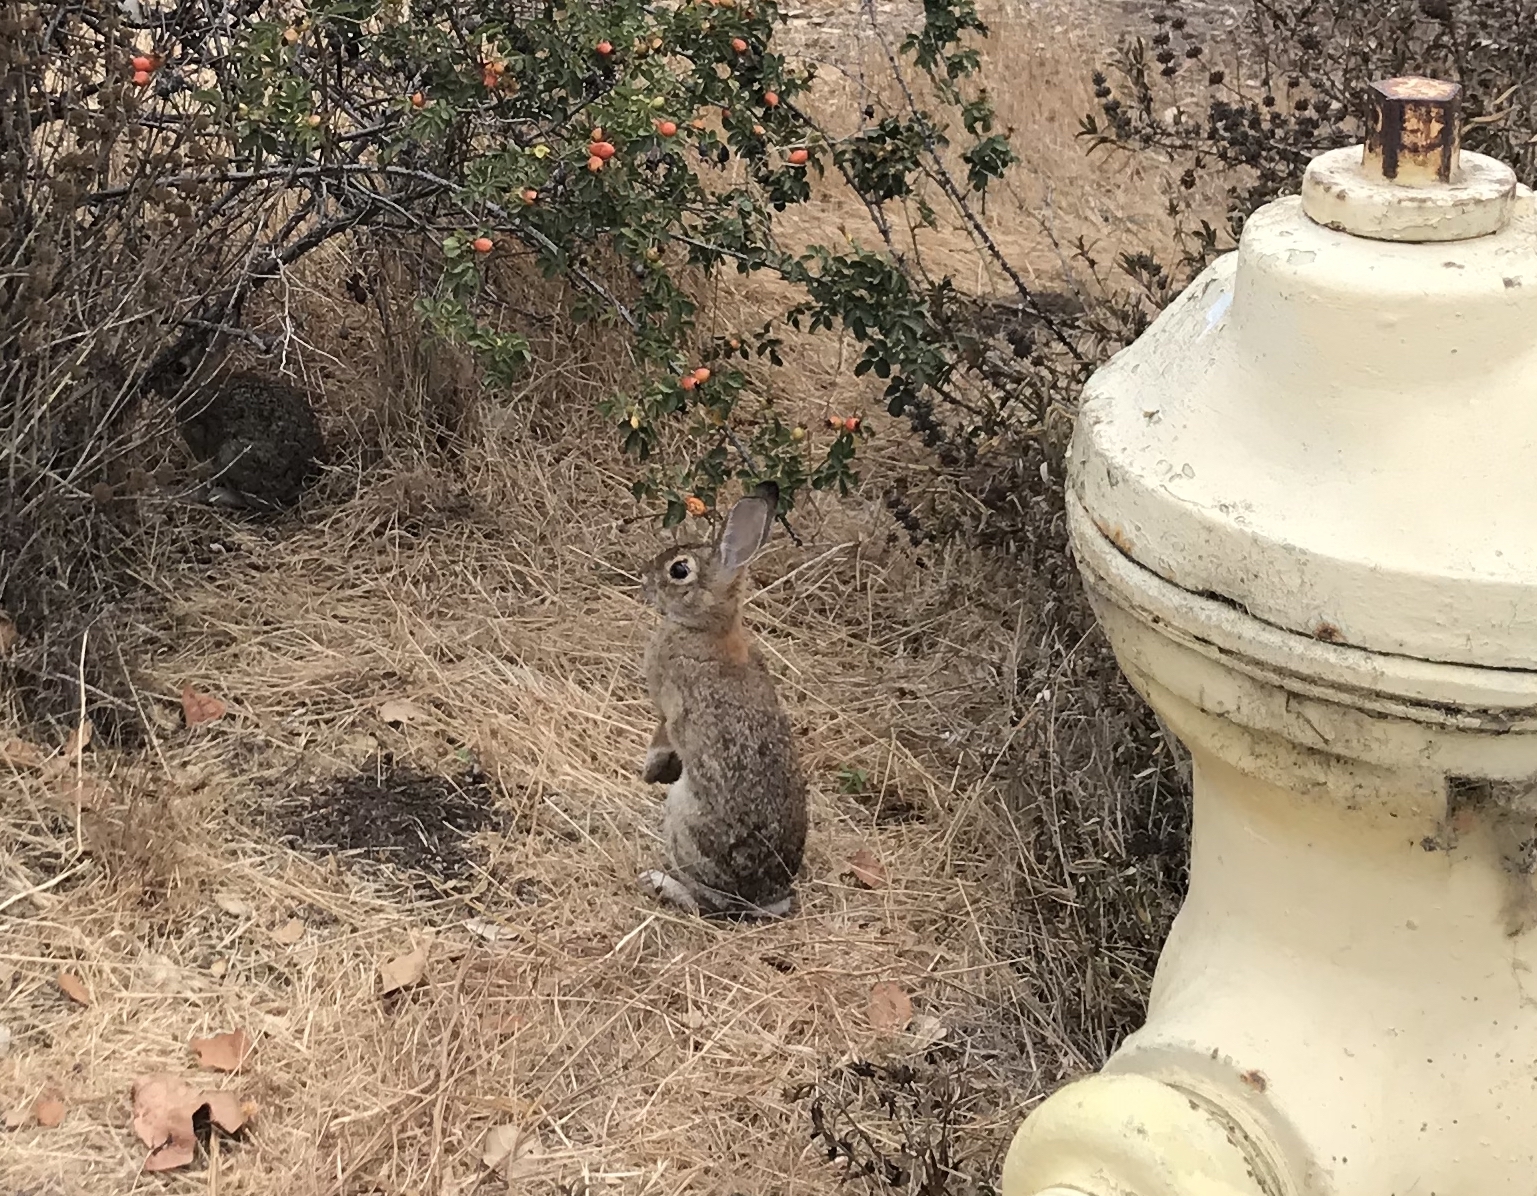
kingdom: Animalia
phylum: Chordata
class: Mammalia
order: Lagomorpha
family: Leporidae
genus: Sylvilagus
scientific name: Sylvilagus audubonii
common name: Desert cottontail
